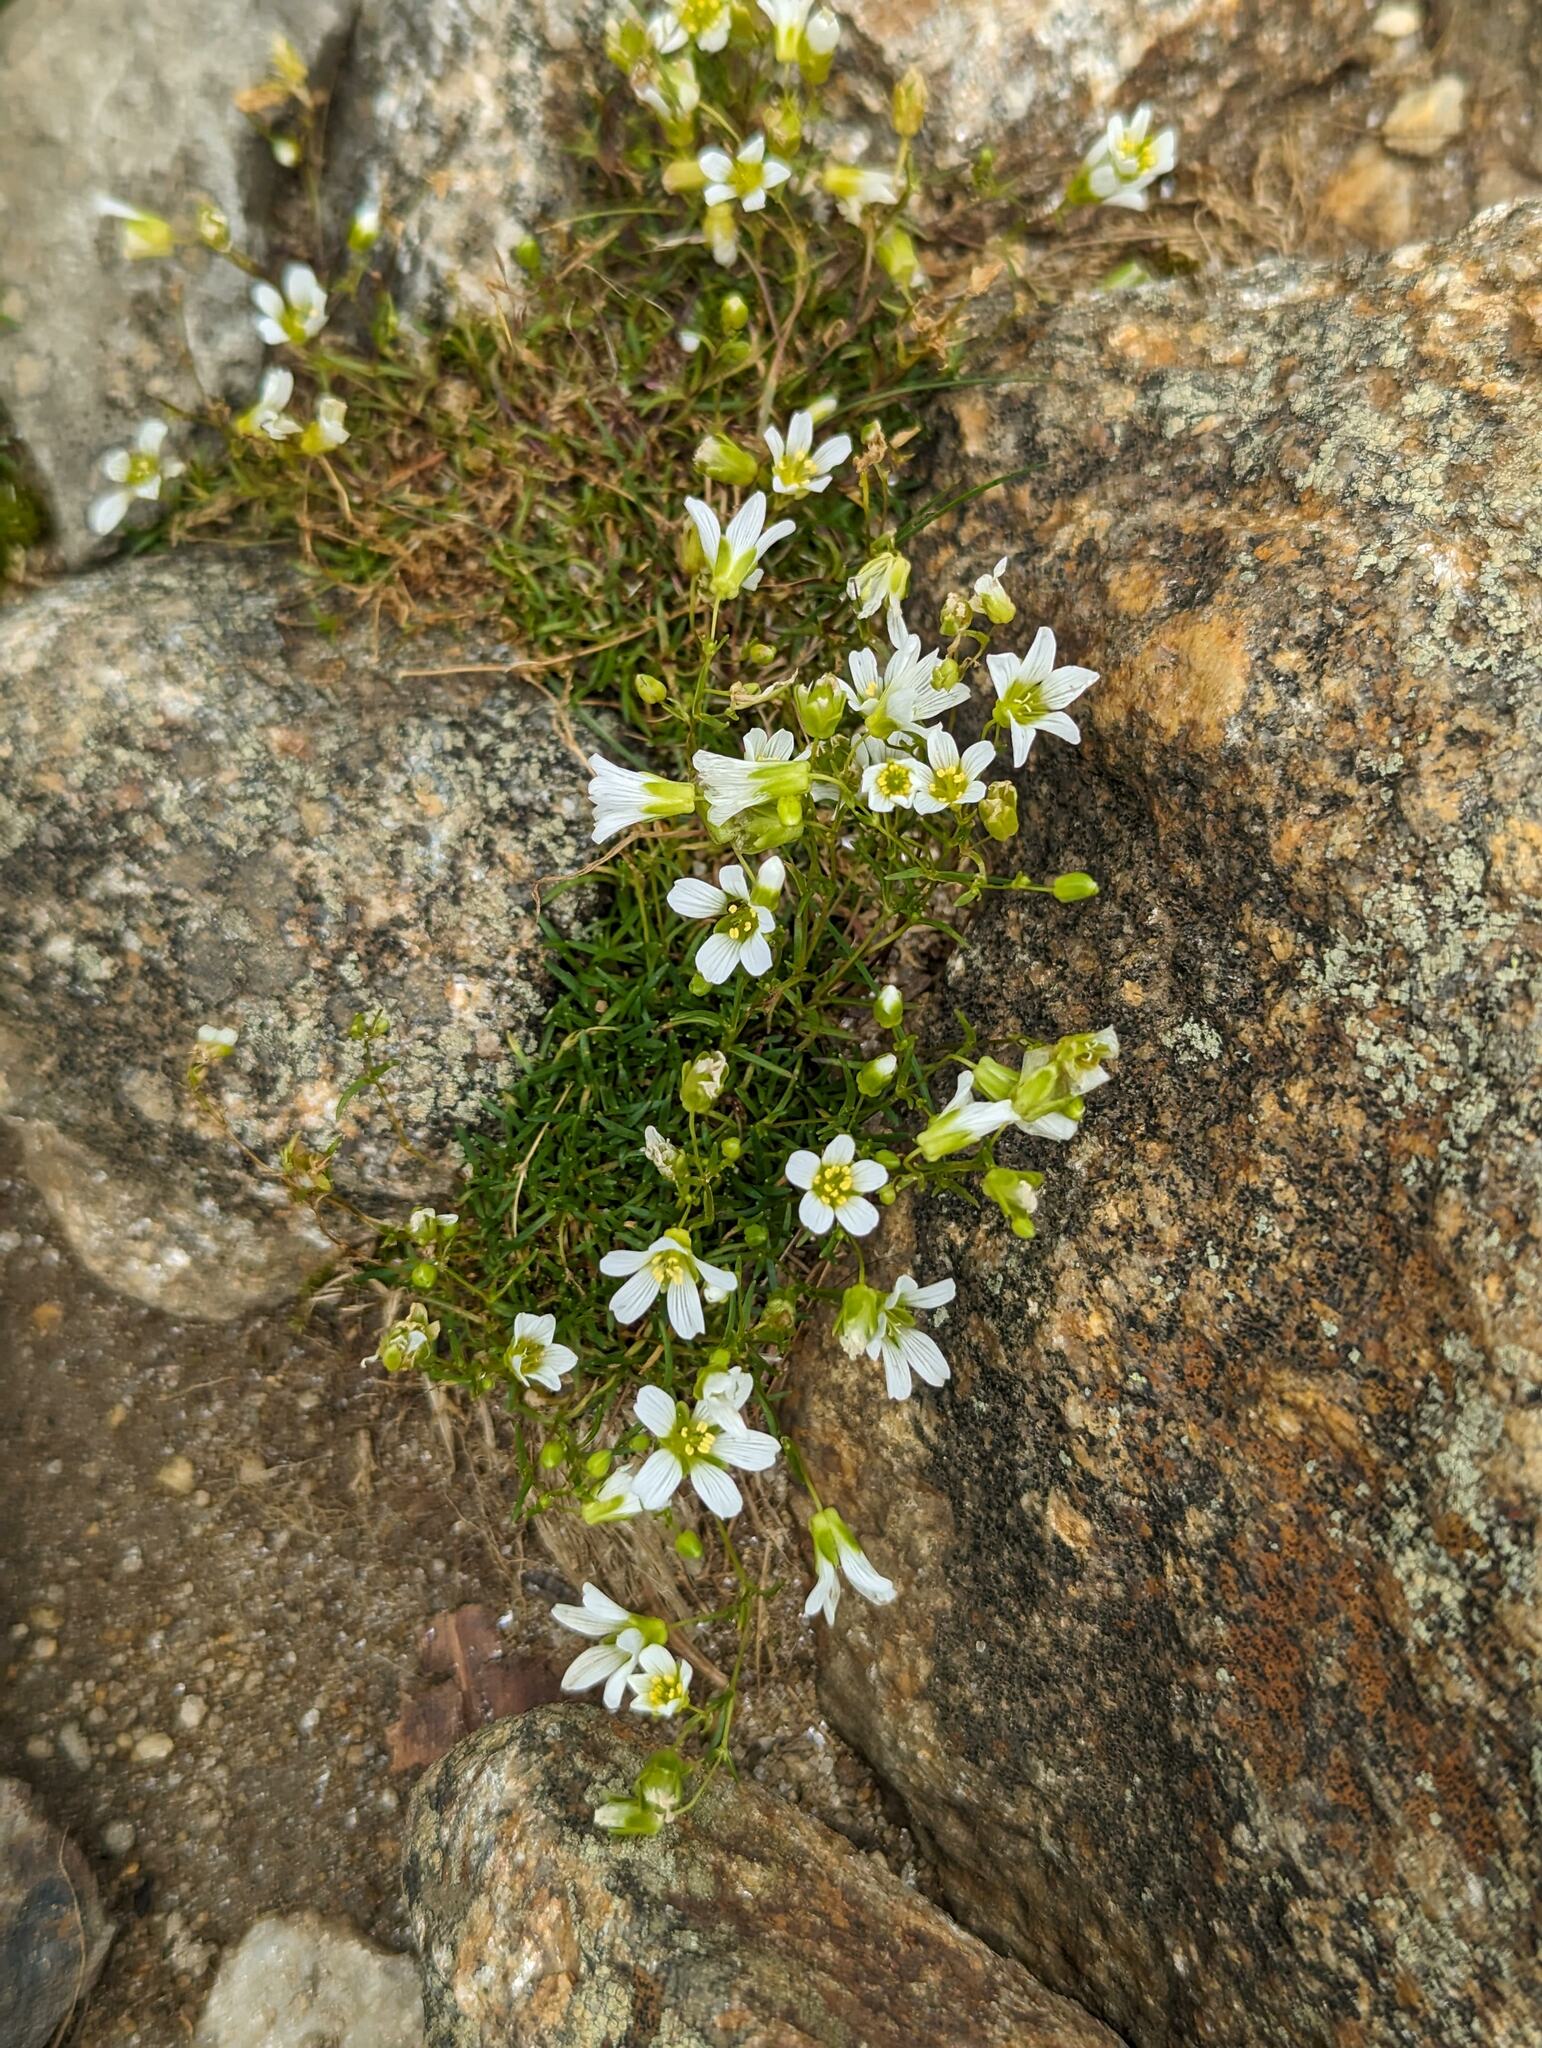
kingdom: Plantae
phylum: Tracheophyta
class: Magnoliopsida
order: Caryophyllales
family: Caryophyllaceae
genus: Geocarpon
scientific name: Geocarpon groenlandicum
